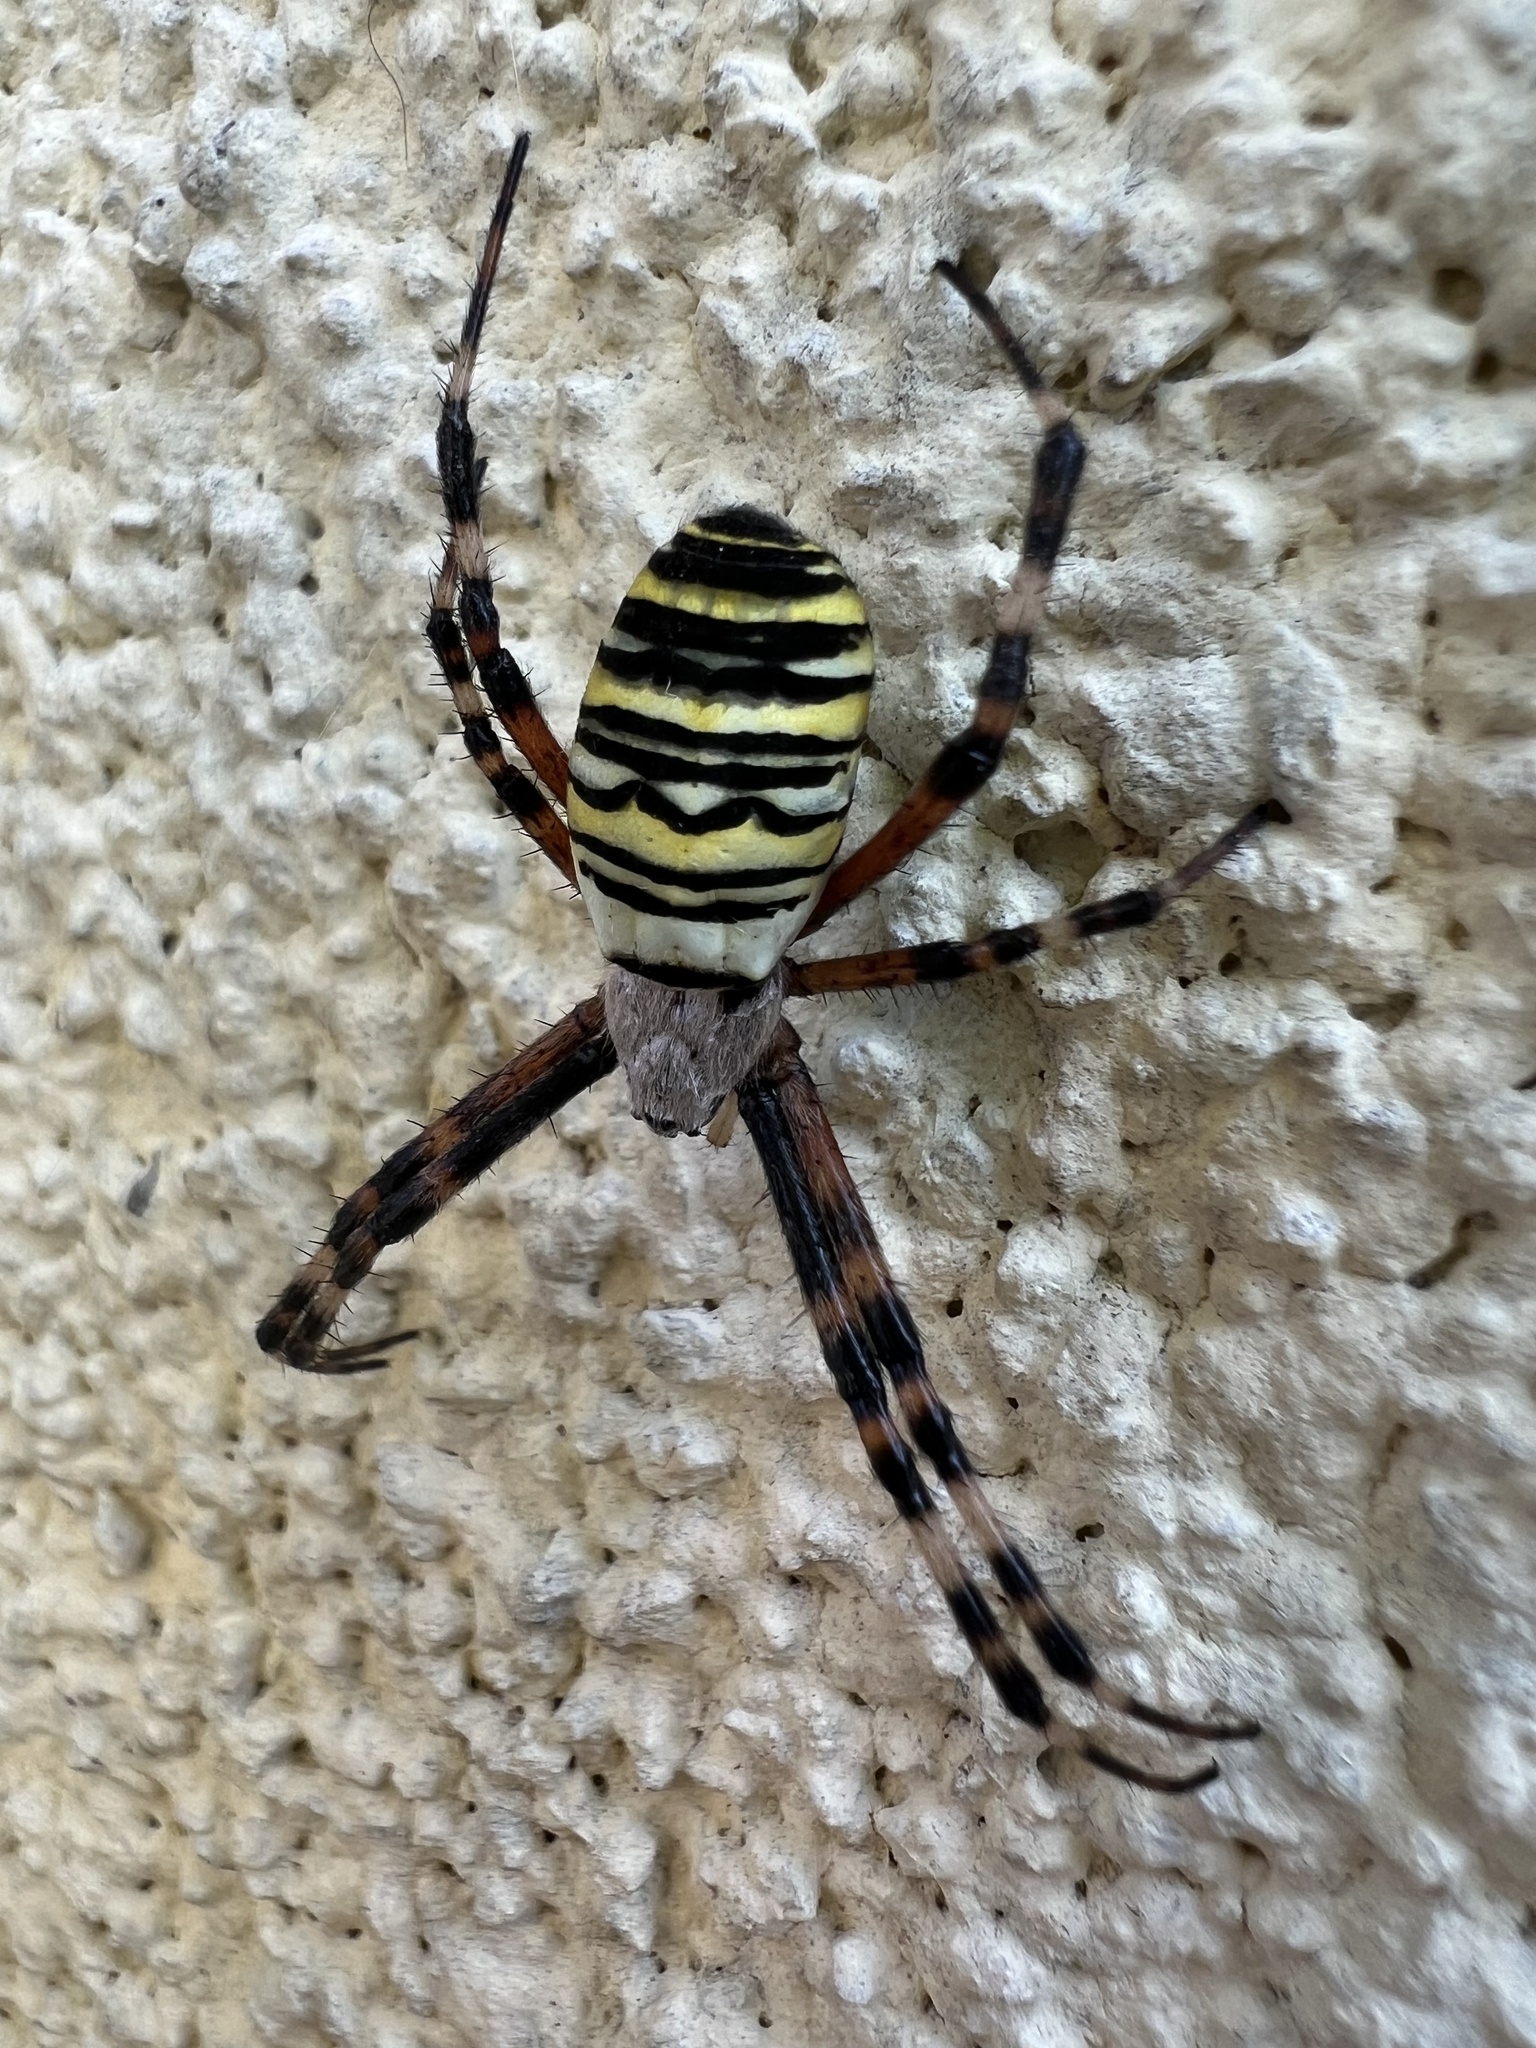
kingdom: Animalia
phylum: Arthropoda
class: Arachnida
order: Araneae
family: Araneidae
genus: Argiope
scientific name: Argiope bruennichi
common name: Wasp spider
